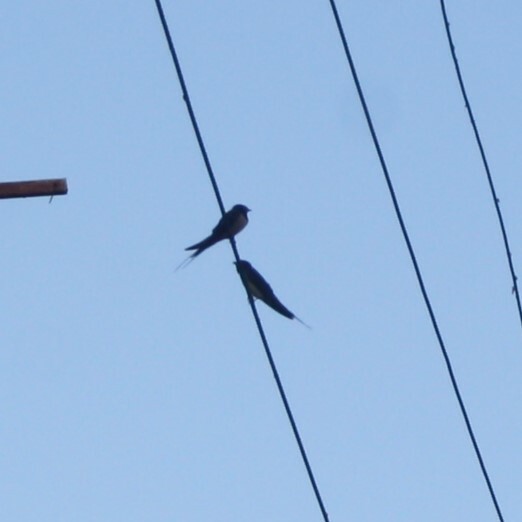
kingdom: Animalia
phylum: Chordata
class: Aves
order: Passeriformes
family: Hirundinidae
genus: Hirundo
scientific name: Hirundo rustica
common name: Barn swallow
